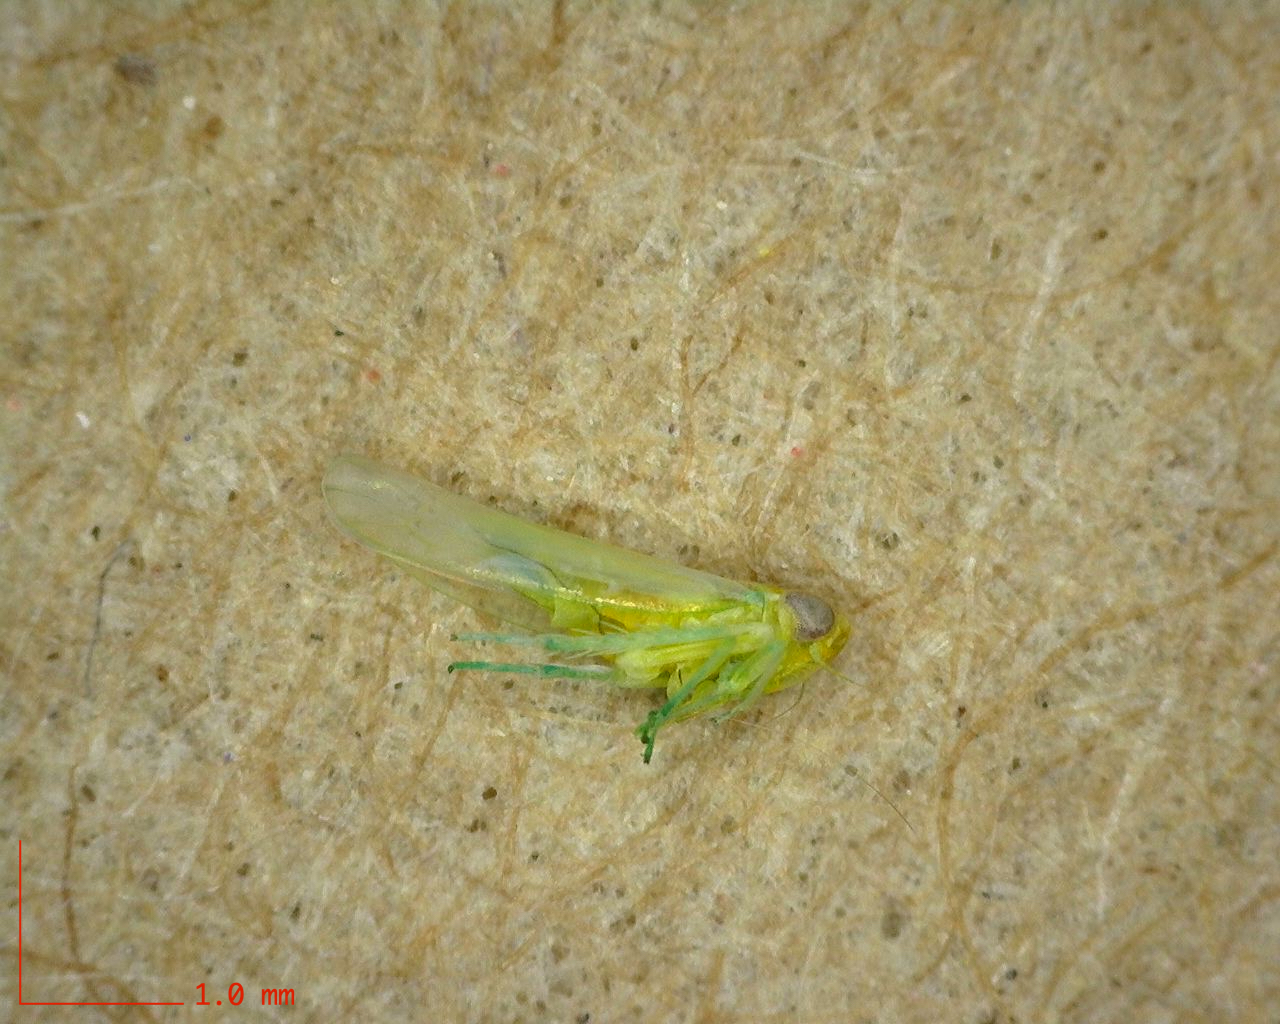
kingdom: Animalia
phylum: Arthropoda
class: Insecta
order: Hemiptera
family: Cicadellidae
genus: Empoasca
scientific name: Empoasca fabae
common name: Potato leafhopper
